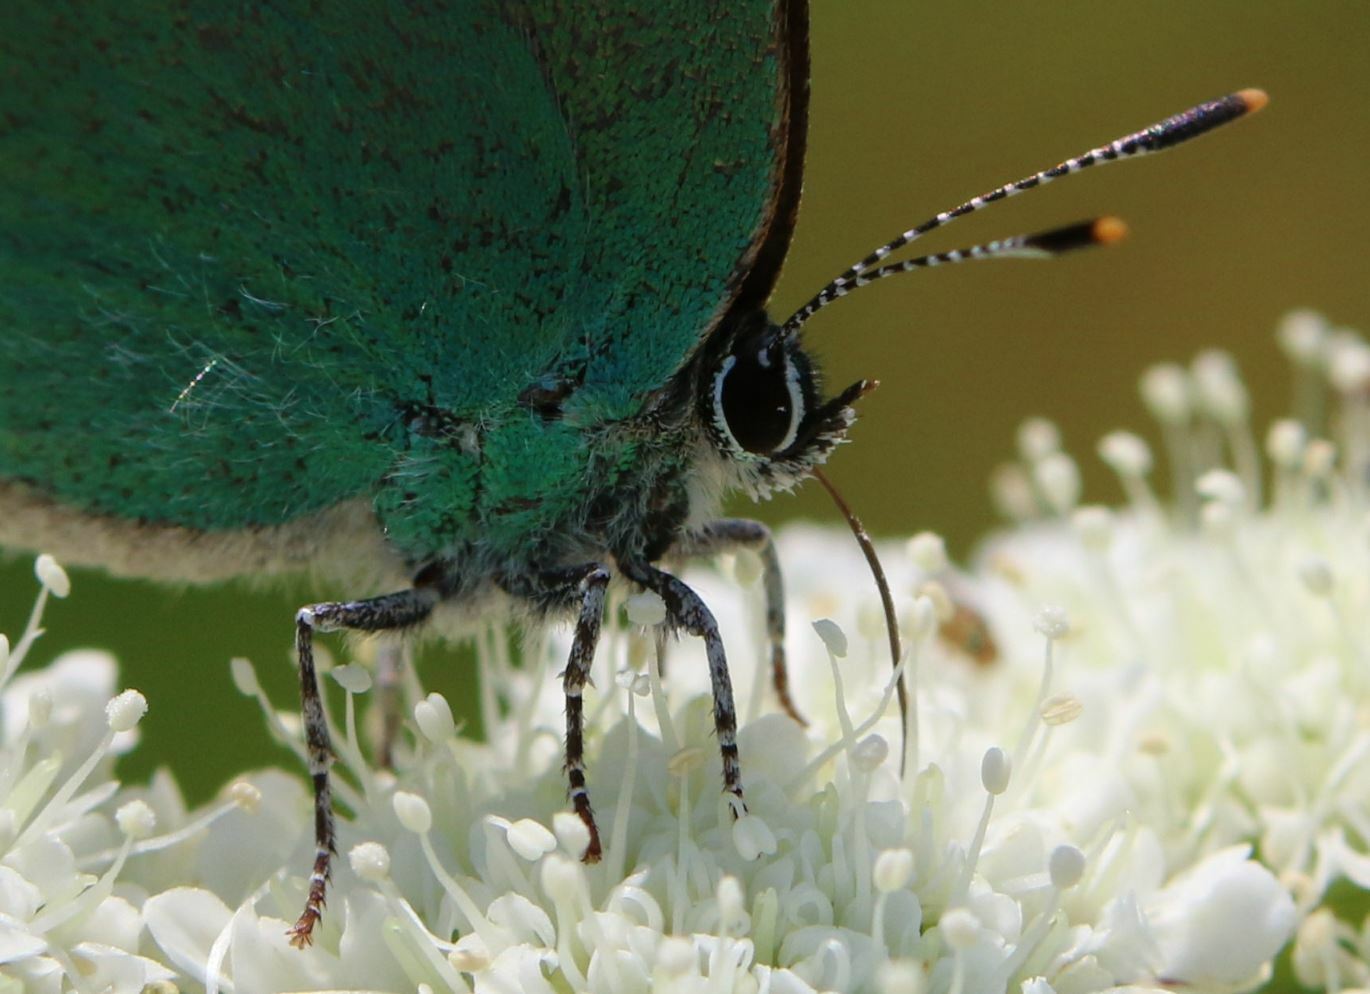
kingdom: Animalia
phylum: Arthropoda
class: Insecta
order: Lepidoptera
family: Lycaenidae
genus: Callophrys
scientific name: Callophrys rubi
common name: Green hairstreak
